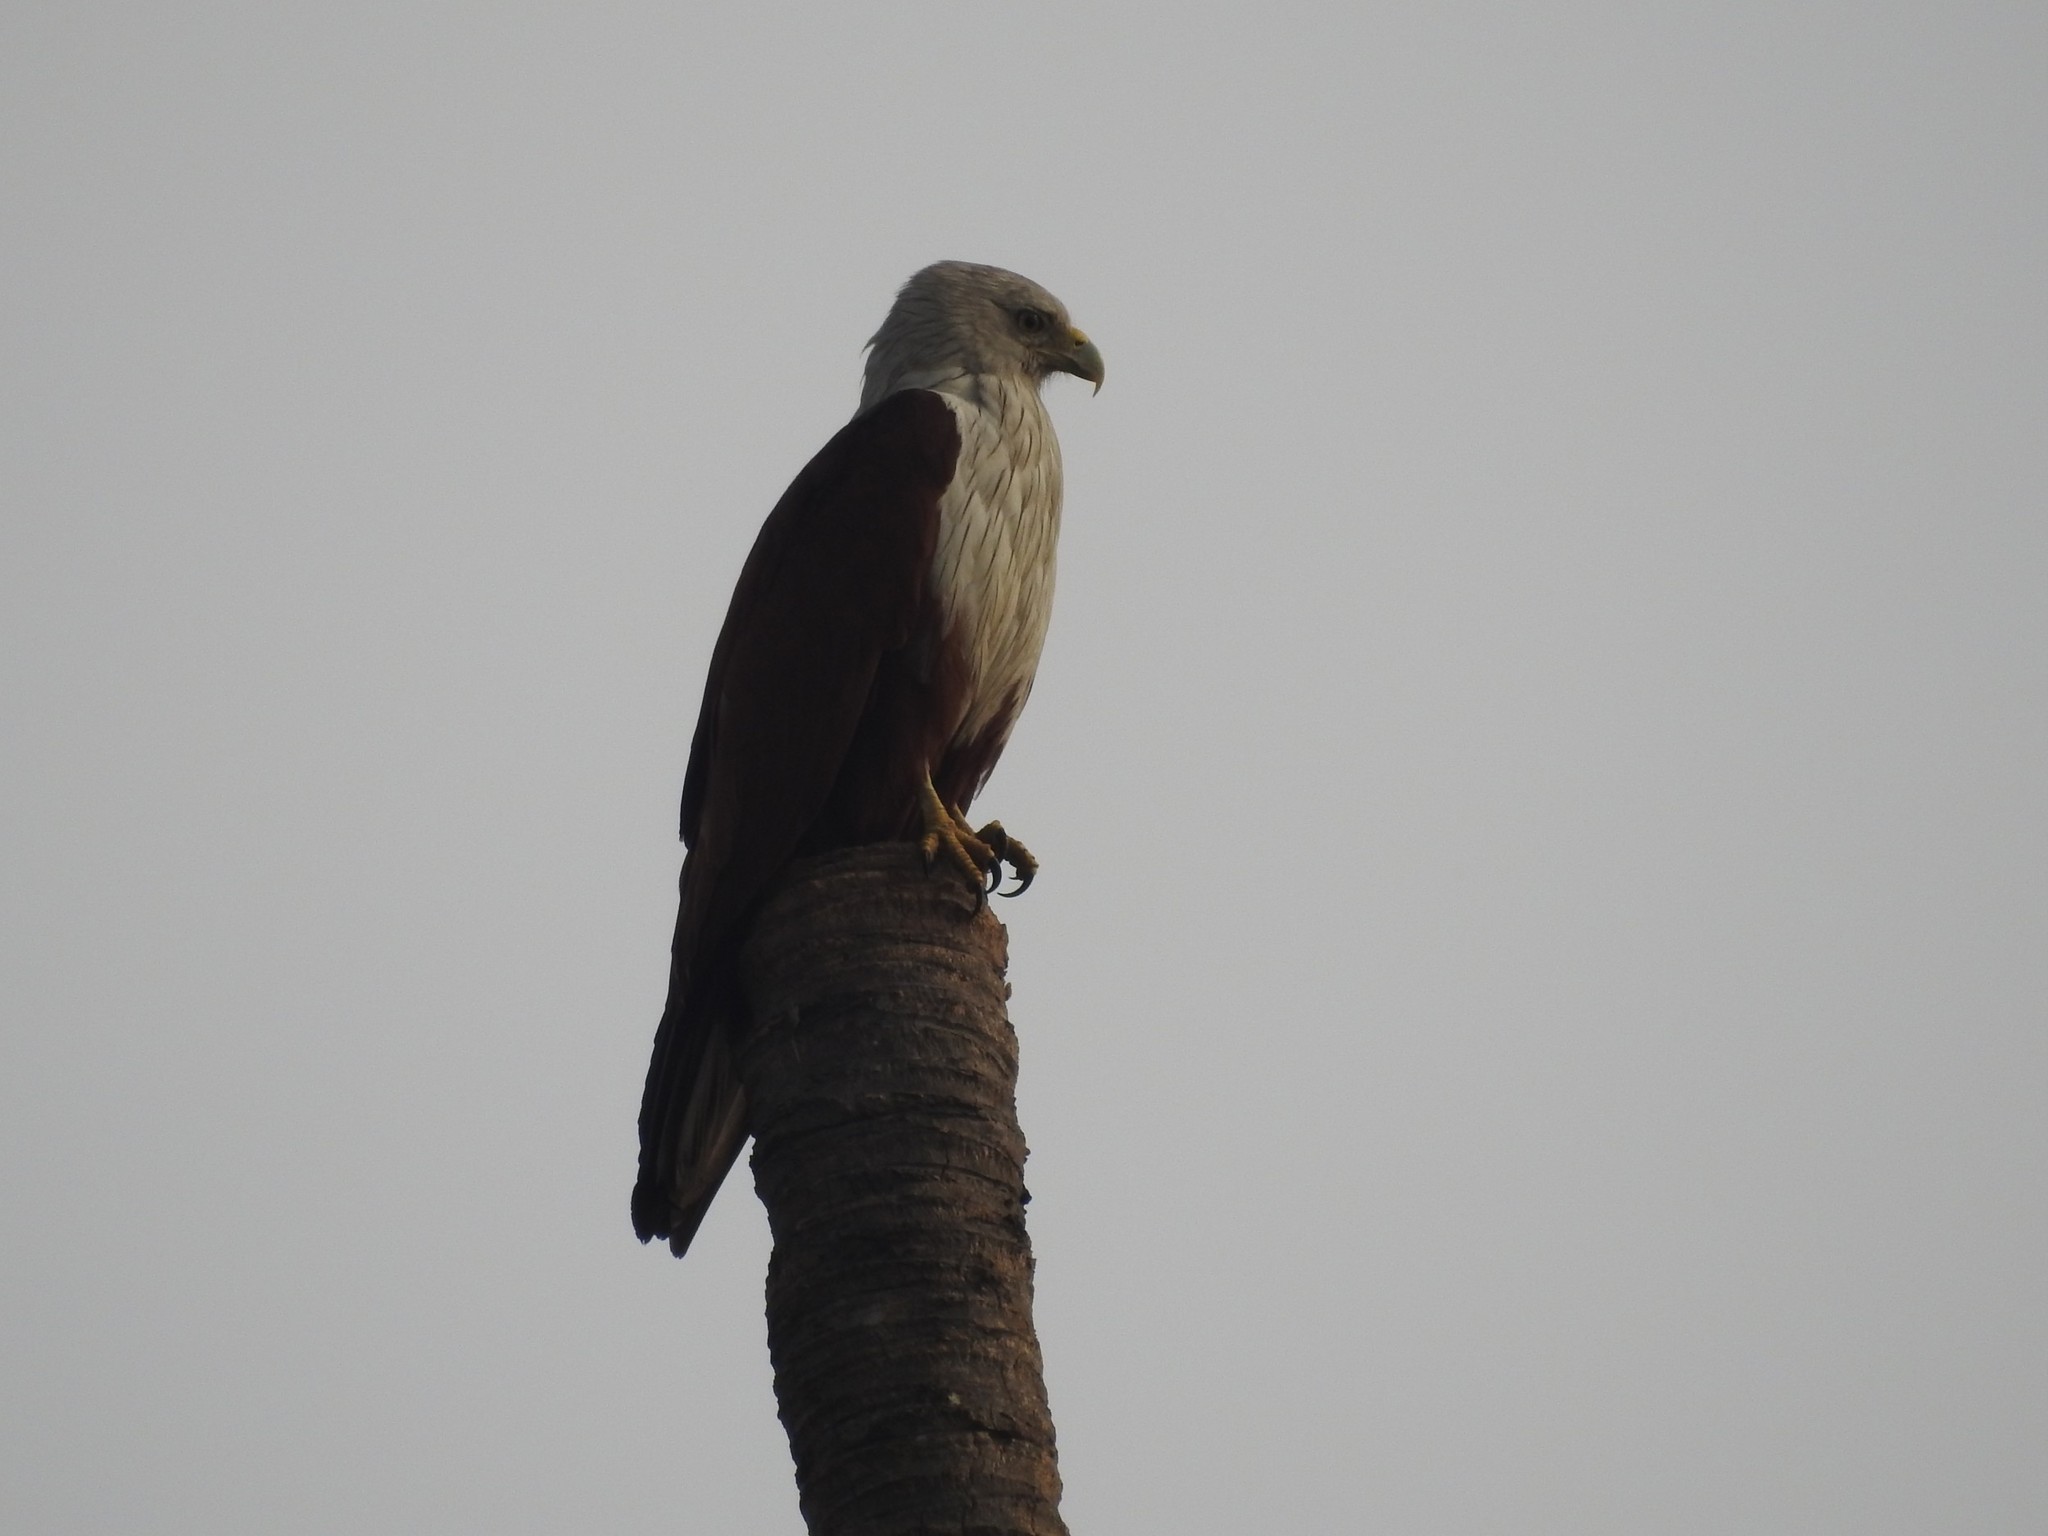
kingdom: Animalia
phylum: Chordata
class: Aves
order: Accipitriformes
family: Accipitridae
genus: Haliastur
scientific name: Haliastur indus
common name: Brahminy kite
